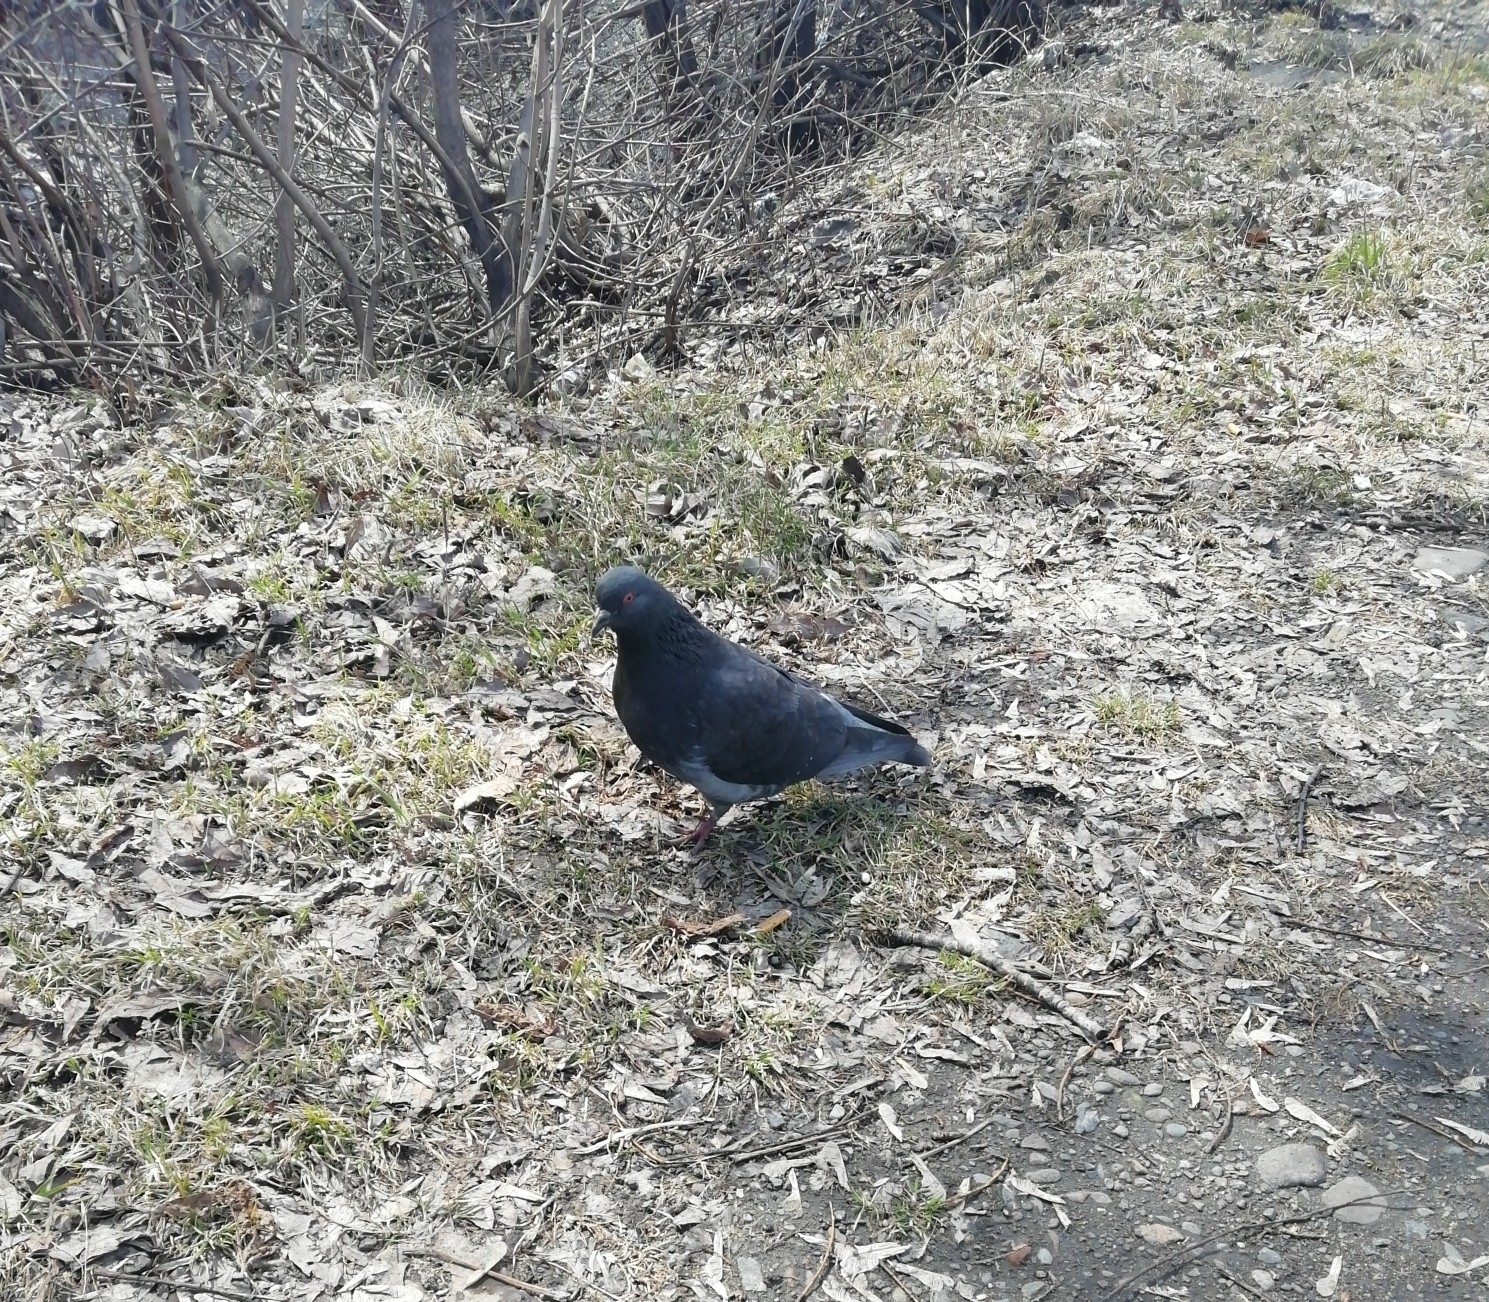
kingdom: Animalia
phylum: Chordata
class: Aves
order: Columbiformes
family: Columbidae
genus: Columba
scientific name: Columba livia
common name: Rock pigeon
